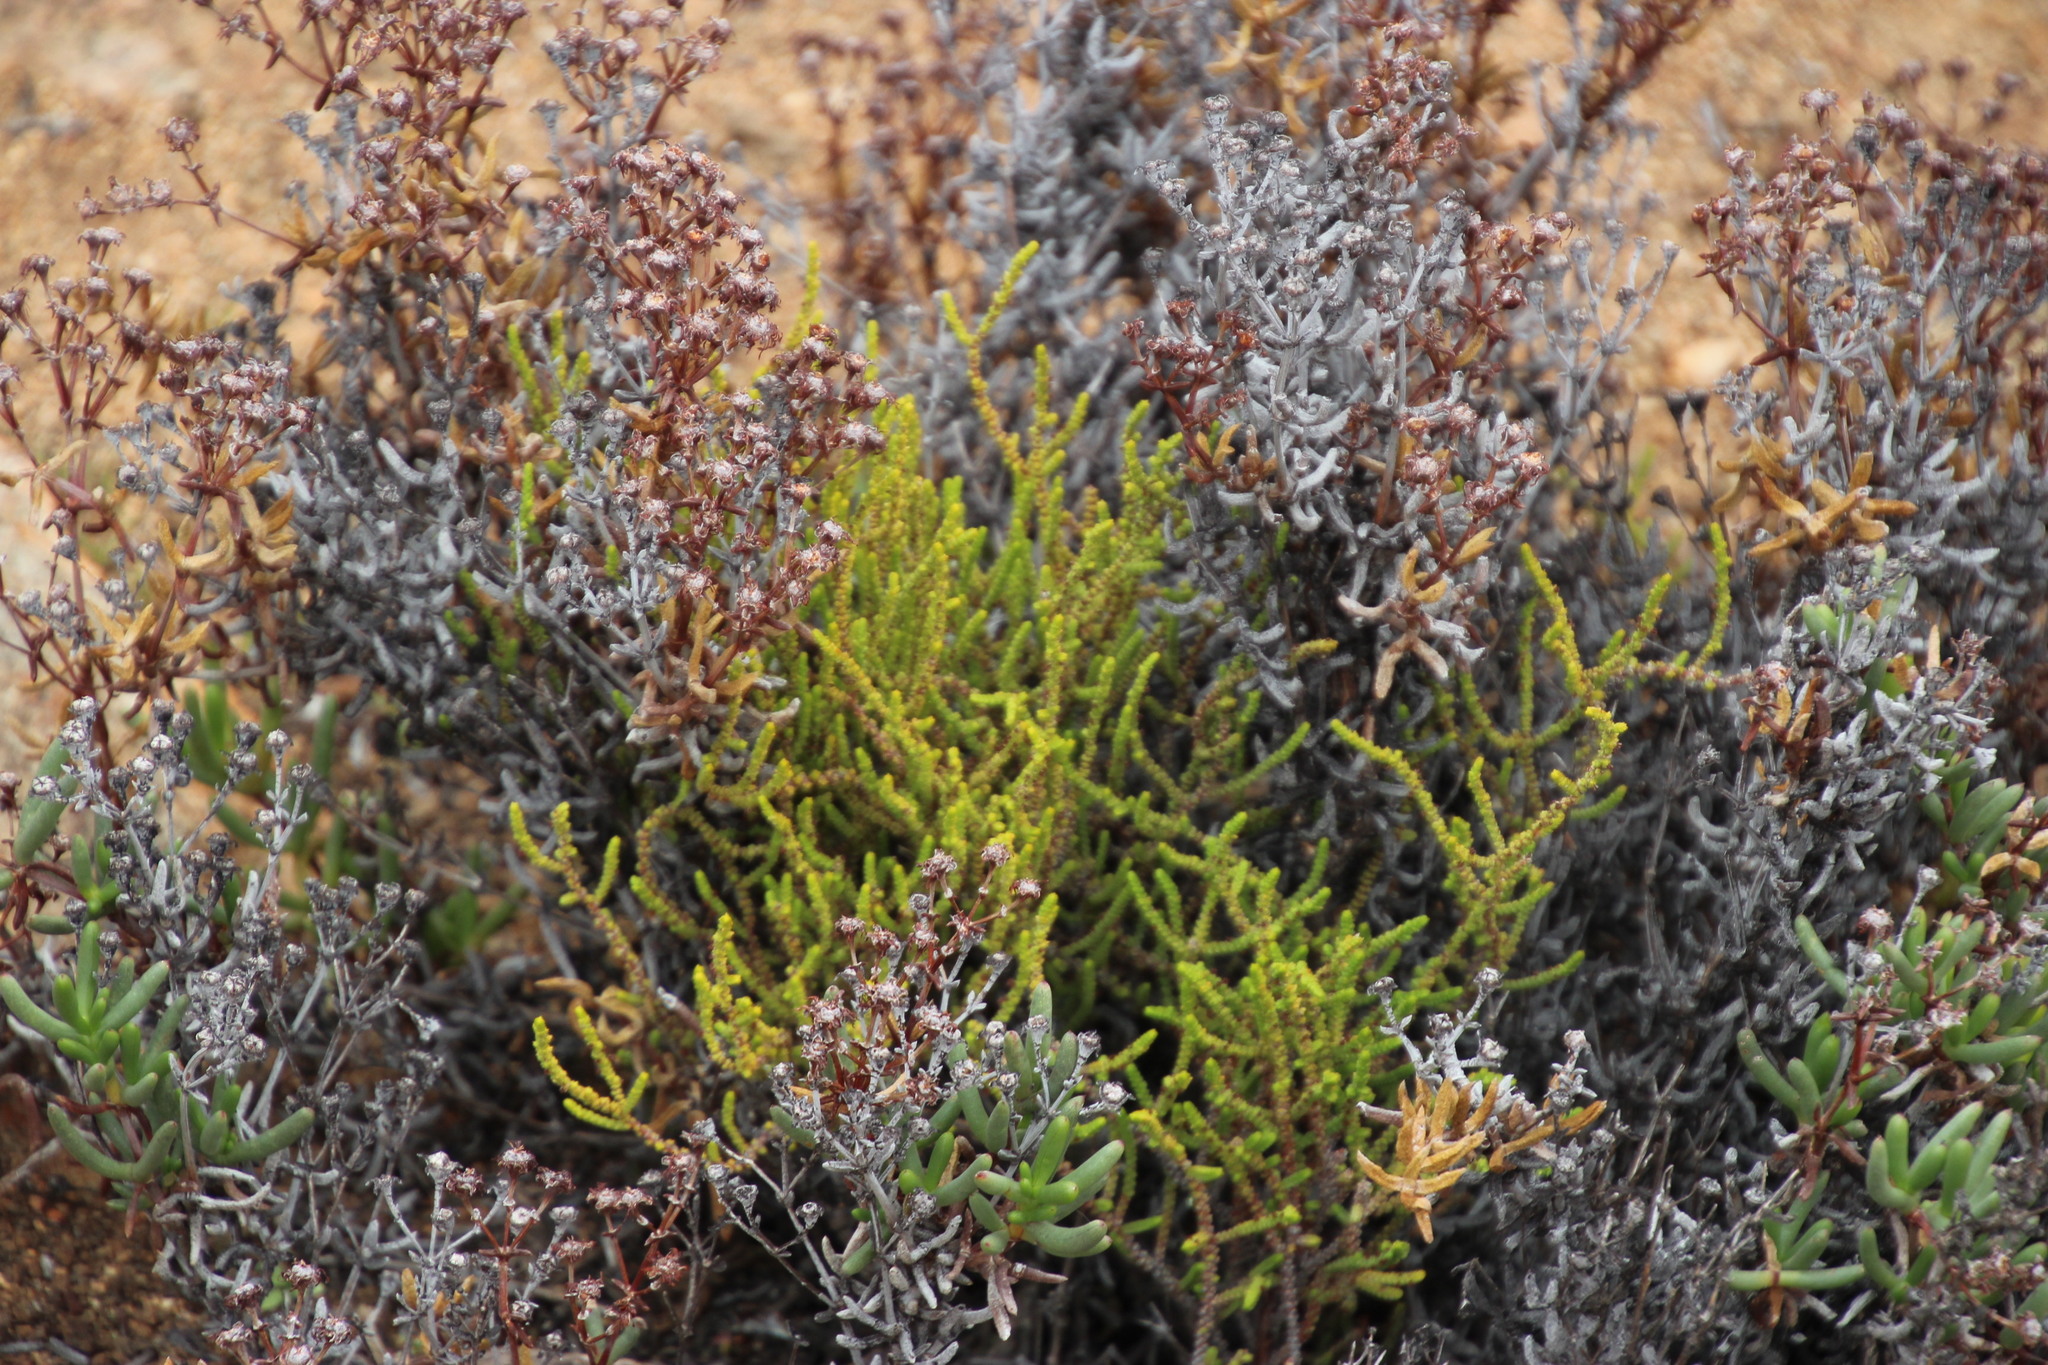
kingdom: Plantae
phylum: Tracheophyta
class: Magnoliopsida
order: Saxifragales
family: Crassulaceae
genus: Crassula
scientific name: Crassula muscosa
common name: Toy-cypress
